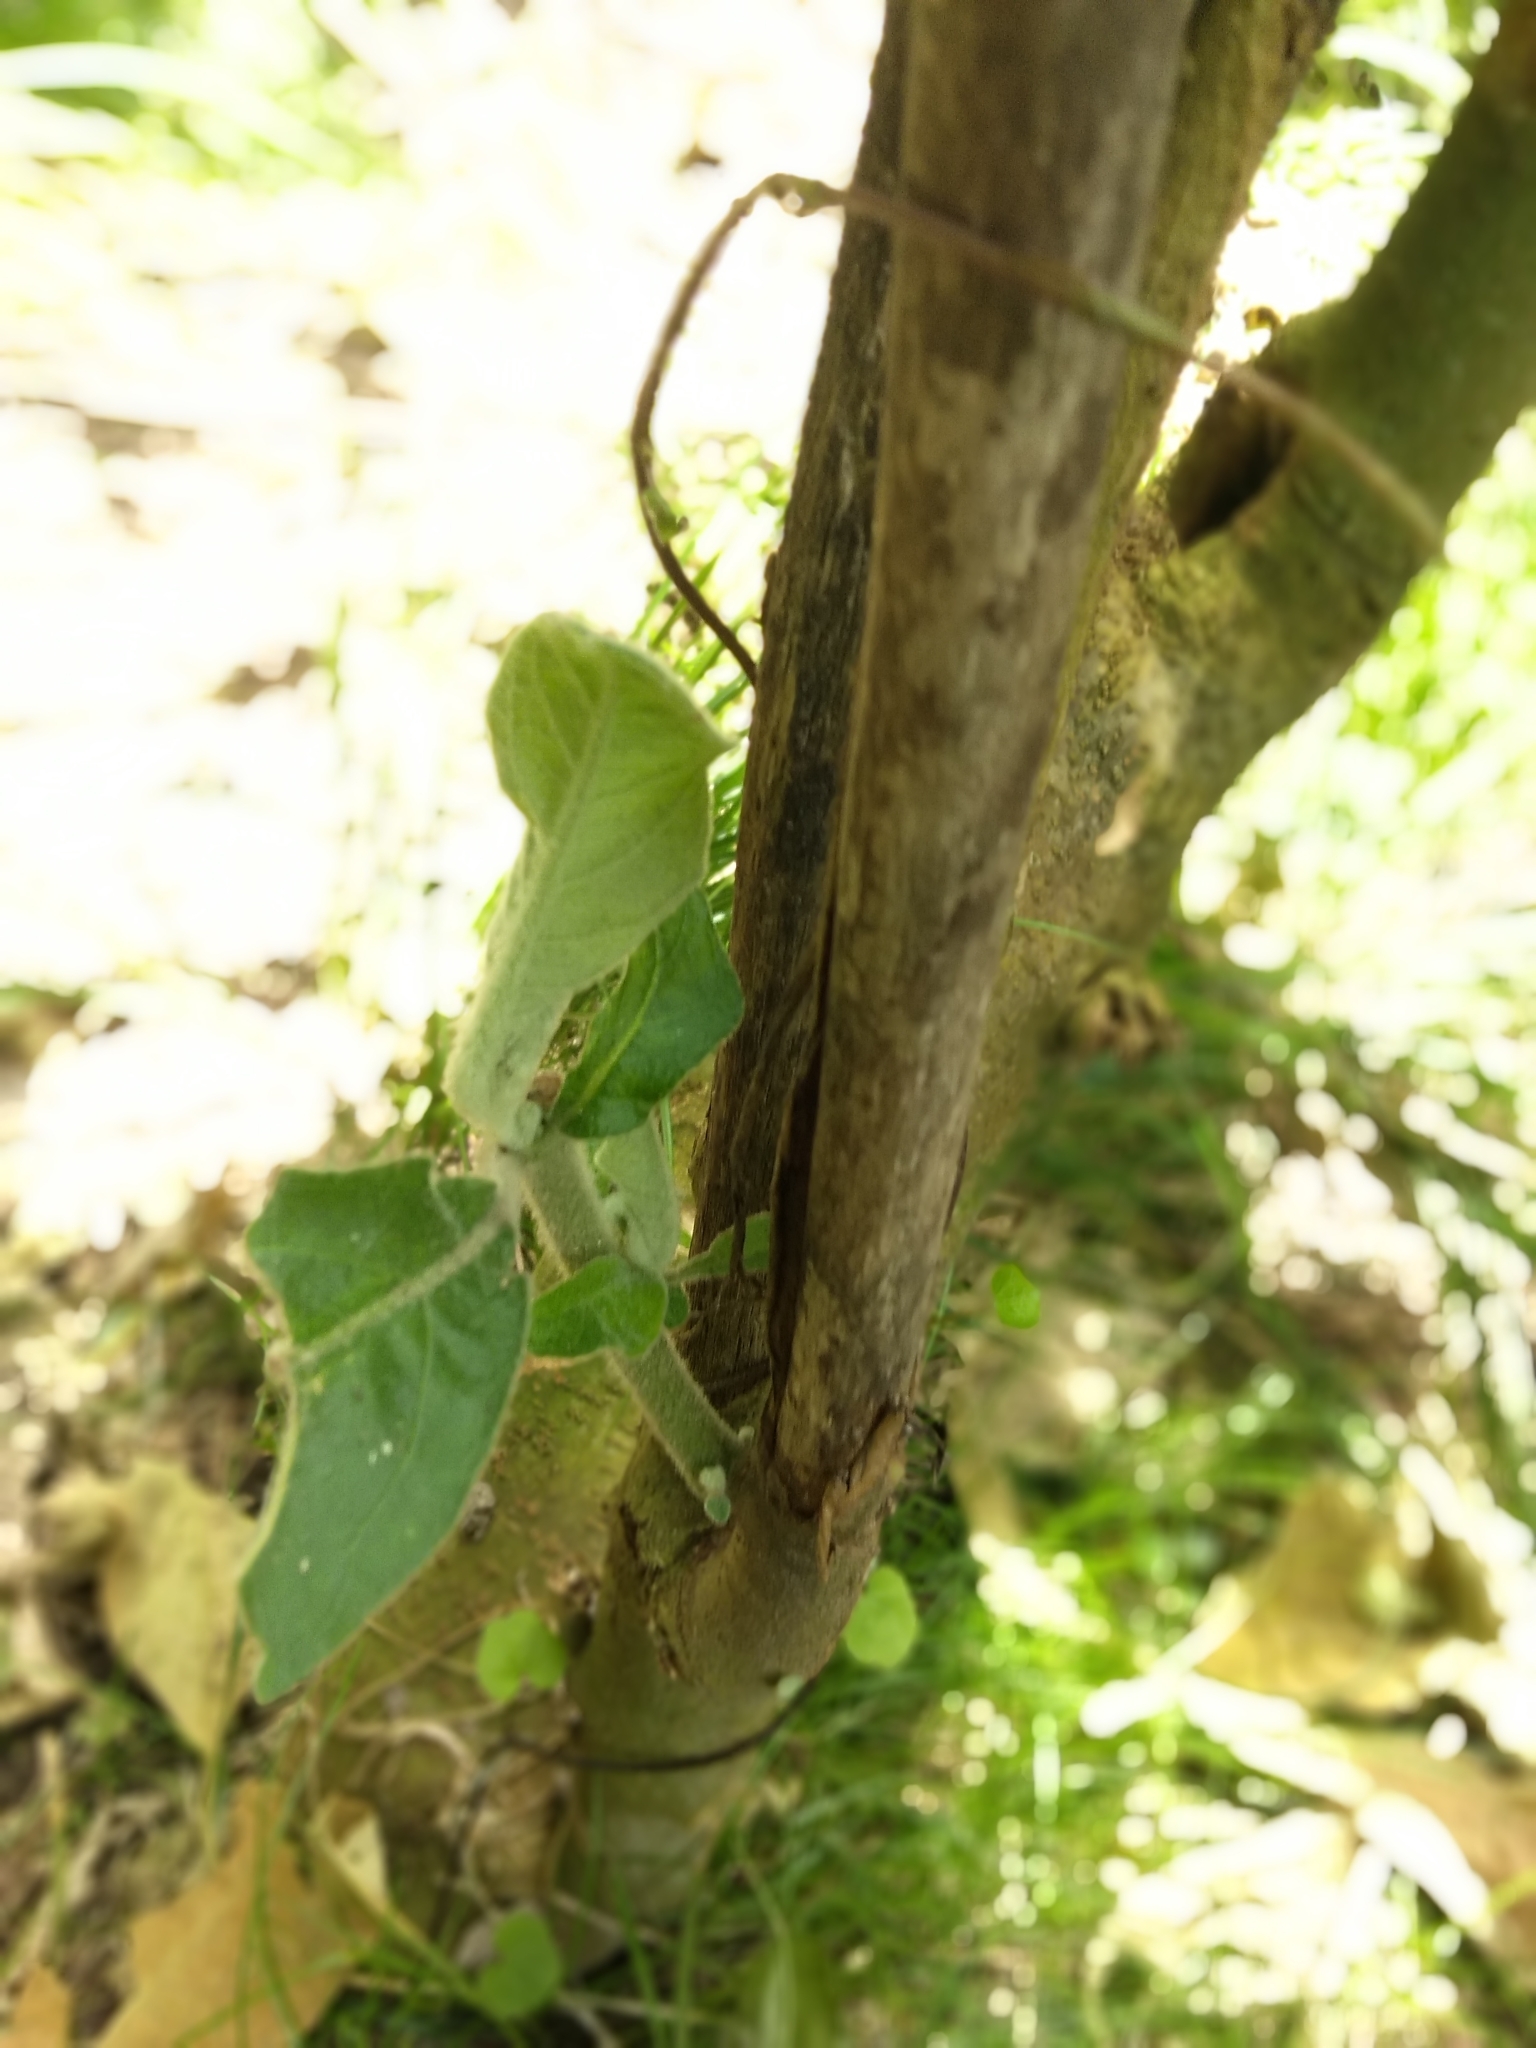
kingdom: Plantae
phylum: Tracheophyta
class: Magnoliopsida
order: Solanales
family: Solanaceae
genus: Solanum
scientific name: Solanum mauritianum
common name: Earleaf nightshade
